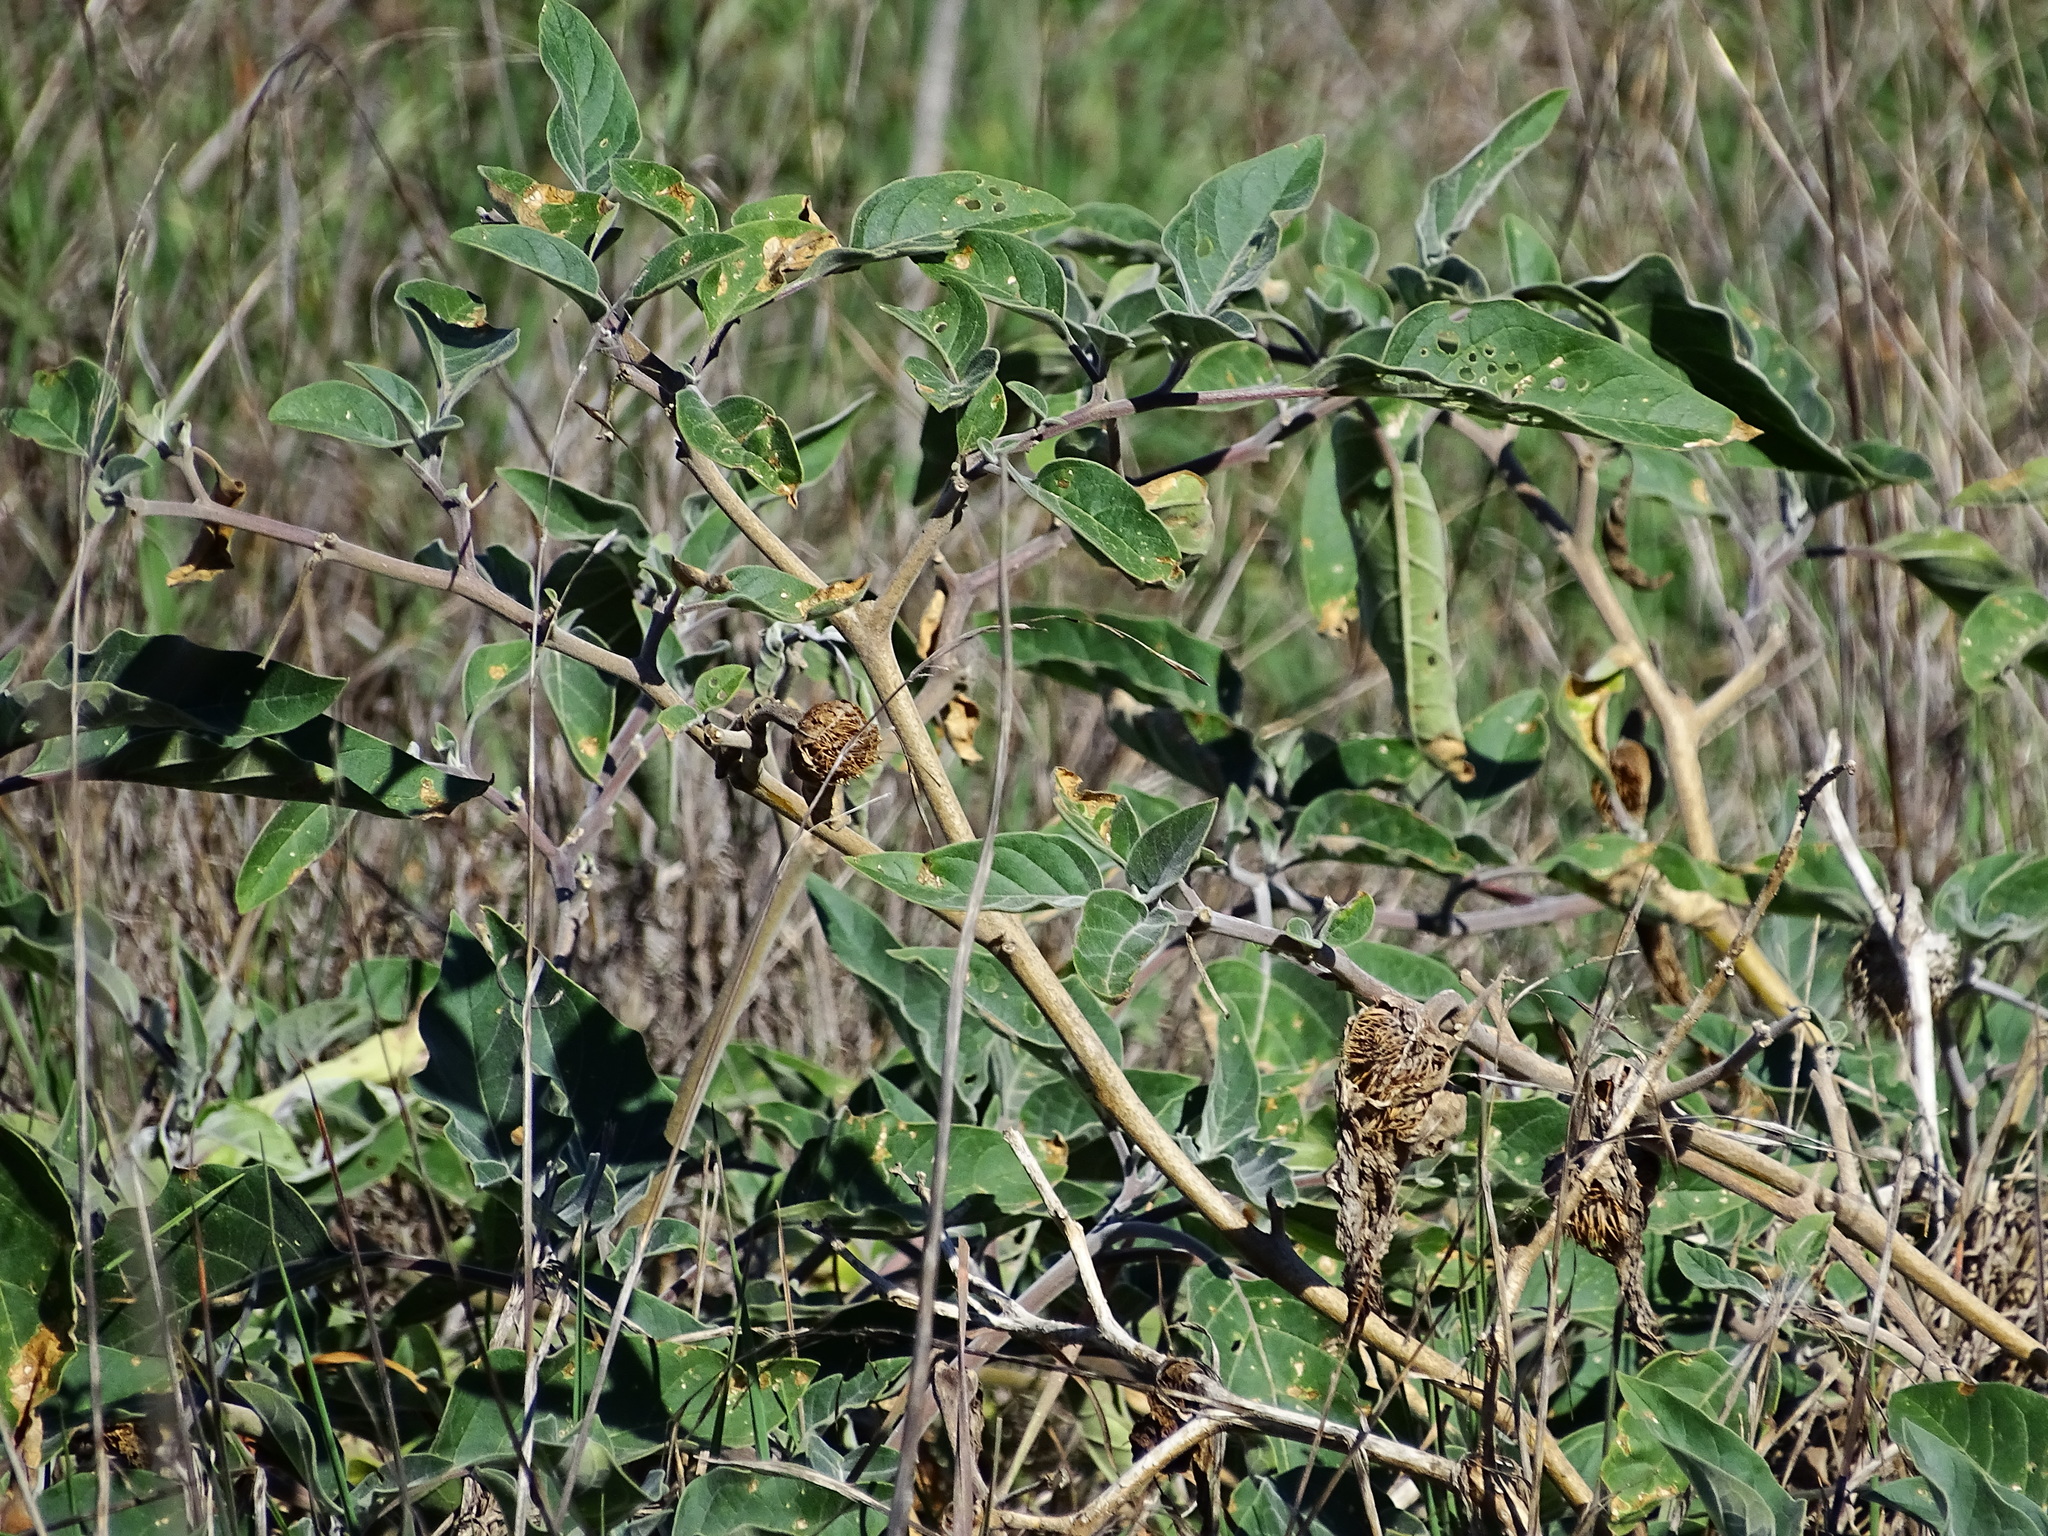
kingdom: Plantae
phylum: Tracheophyta
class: Magnoliopsida
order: Solanales
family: Solanaceae
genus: Datura
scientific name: Datura wrightii
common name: Sacred thorn-apple
